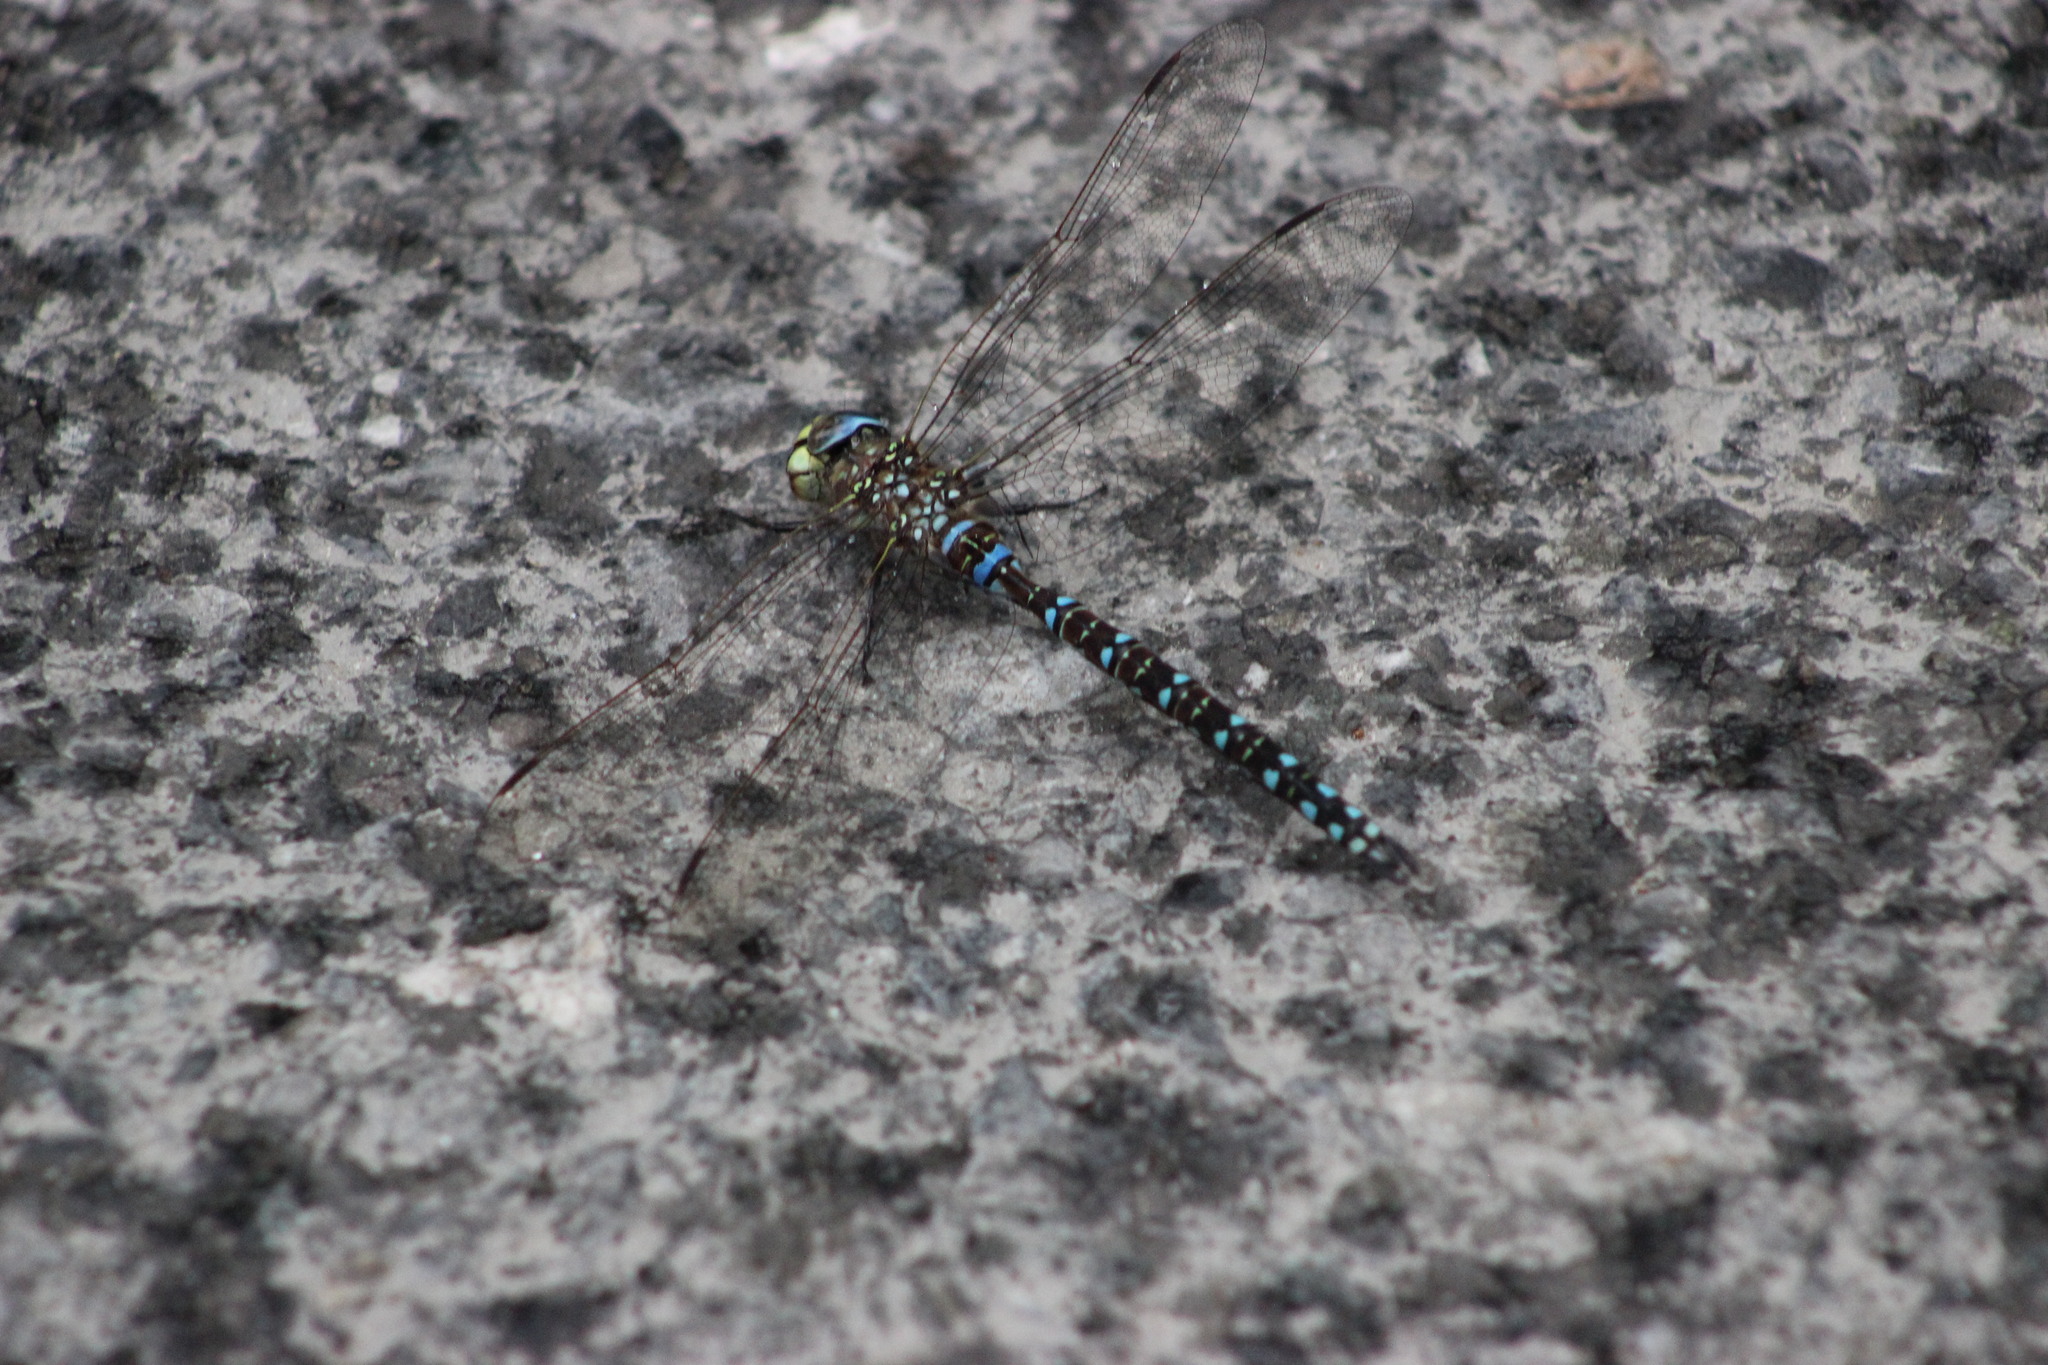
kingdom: Animalia
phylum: Arthropoda
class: Insecta
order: Odonata
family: Aeshnidae
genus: Aeshna
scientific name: Aeshna juncea
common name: Moorland hawker
